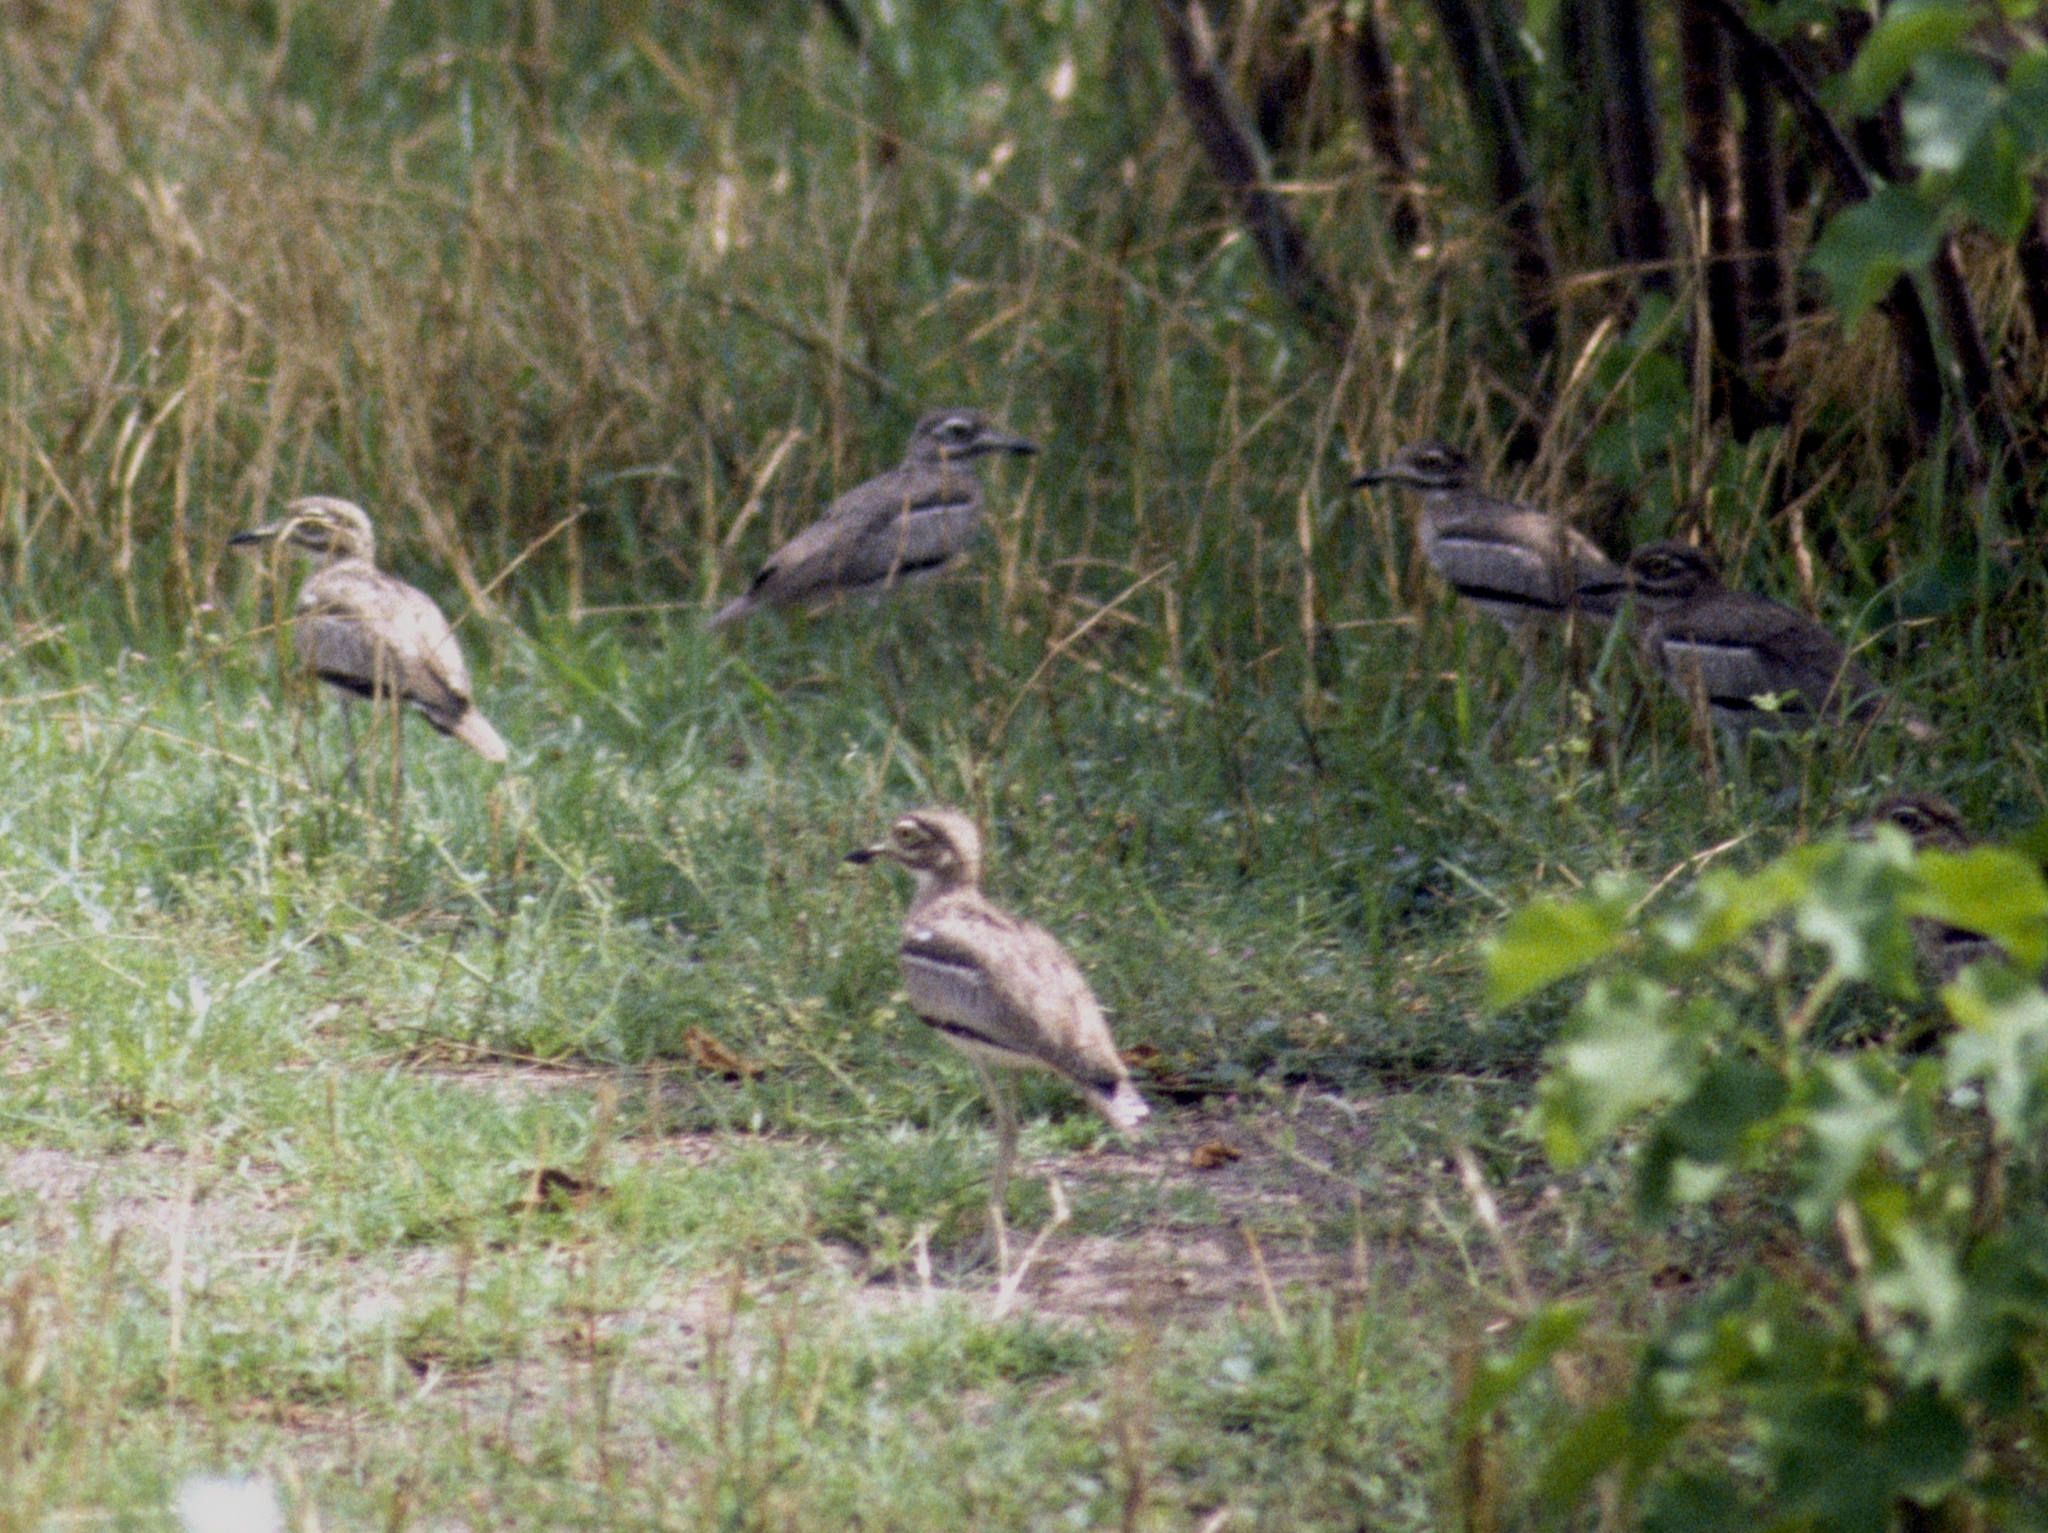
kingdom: Animalia
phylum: Chordata
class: Aves
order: Charadriiformes
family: Burhinidae
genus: Burhinus
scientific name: Burhinus vermiculatus
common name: Water thick-knee
